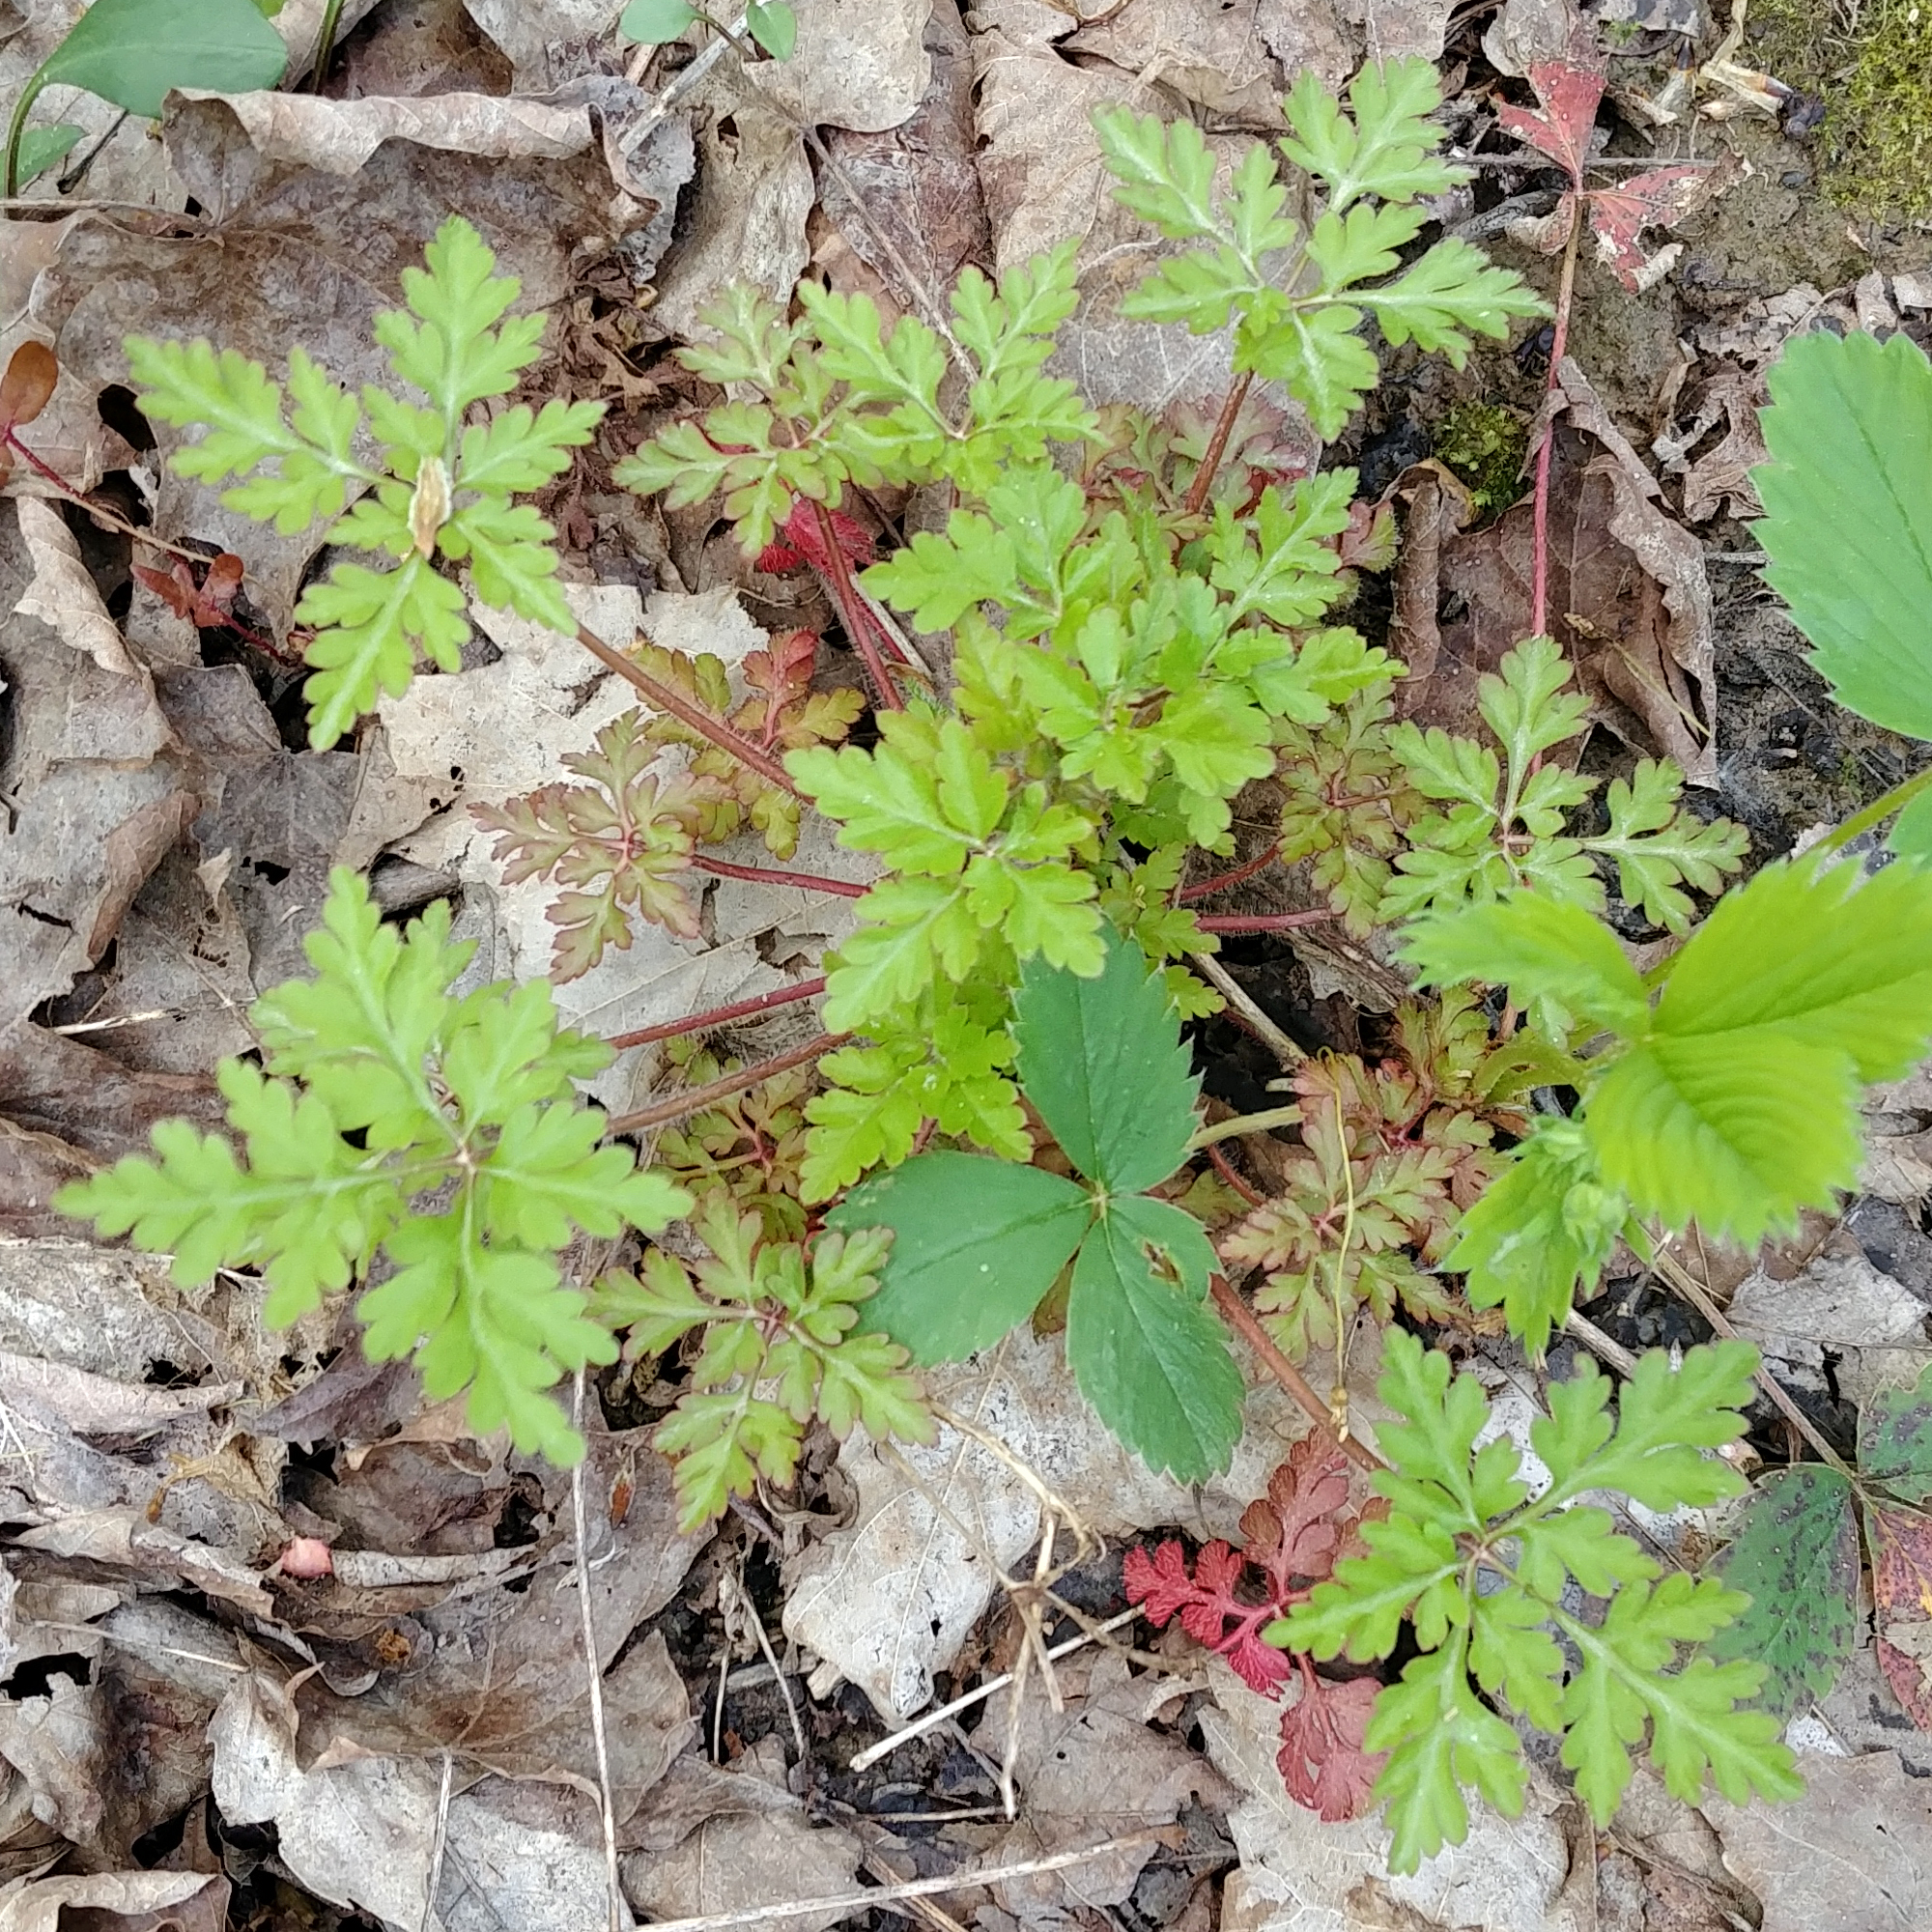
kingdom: Plantae
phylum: Tracheophyta
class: Magnoliopsida
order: Geraniales
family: Geraniaceae
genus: Geranium
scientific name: Geranium robertianum
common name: Herb-robert
